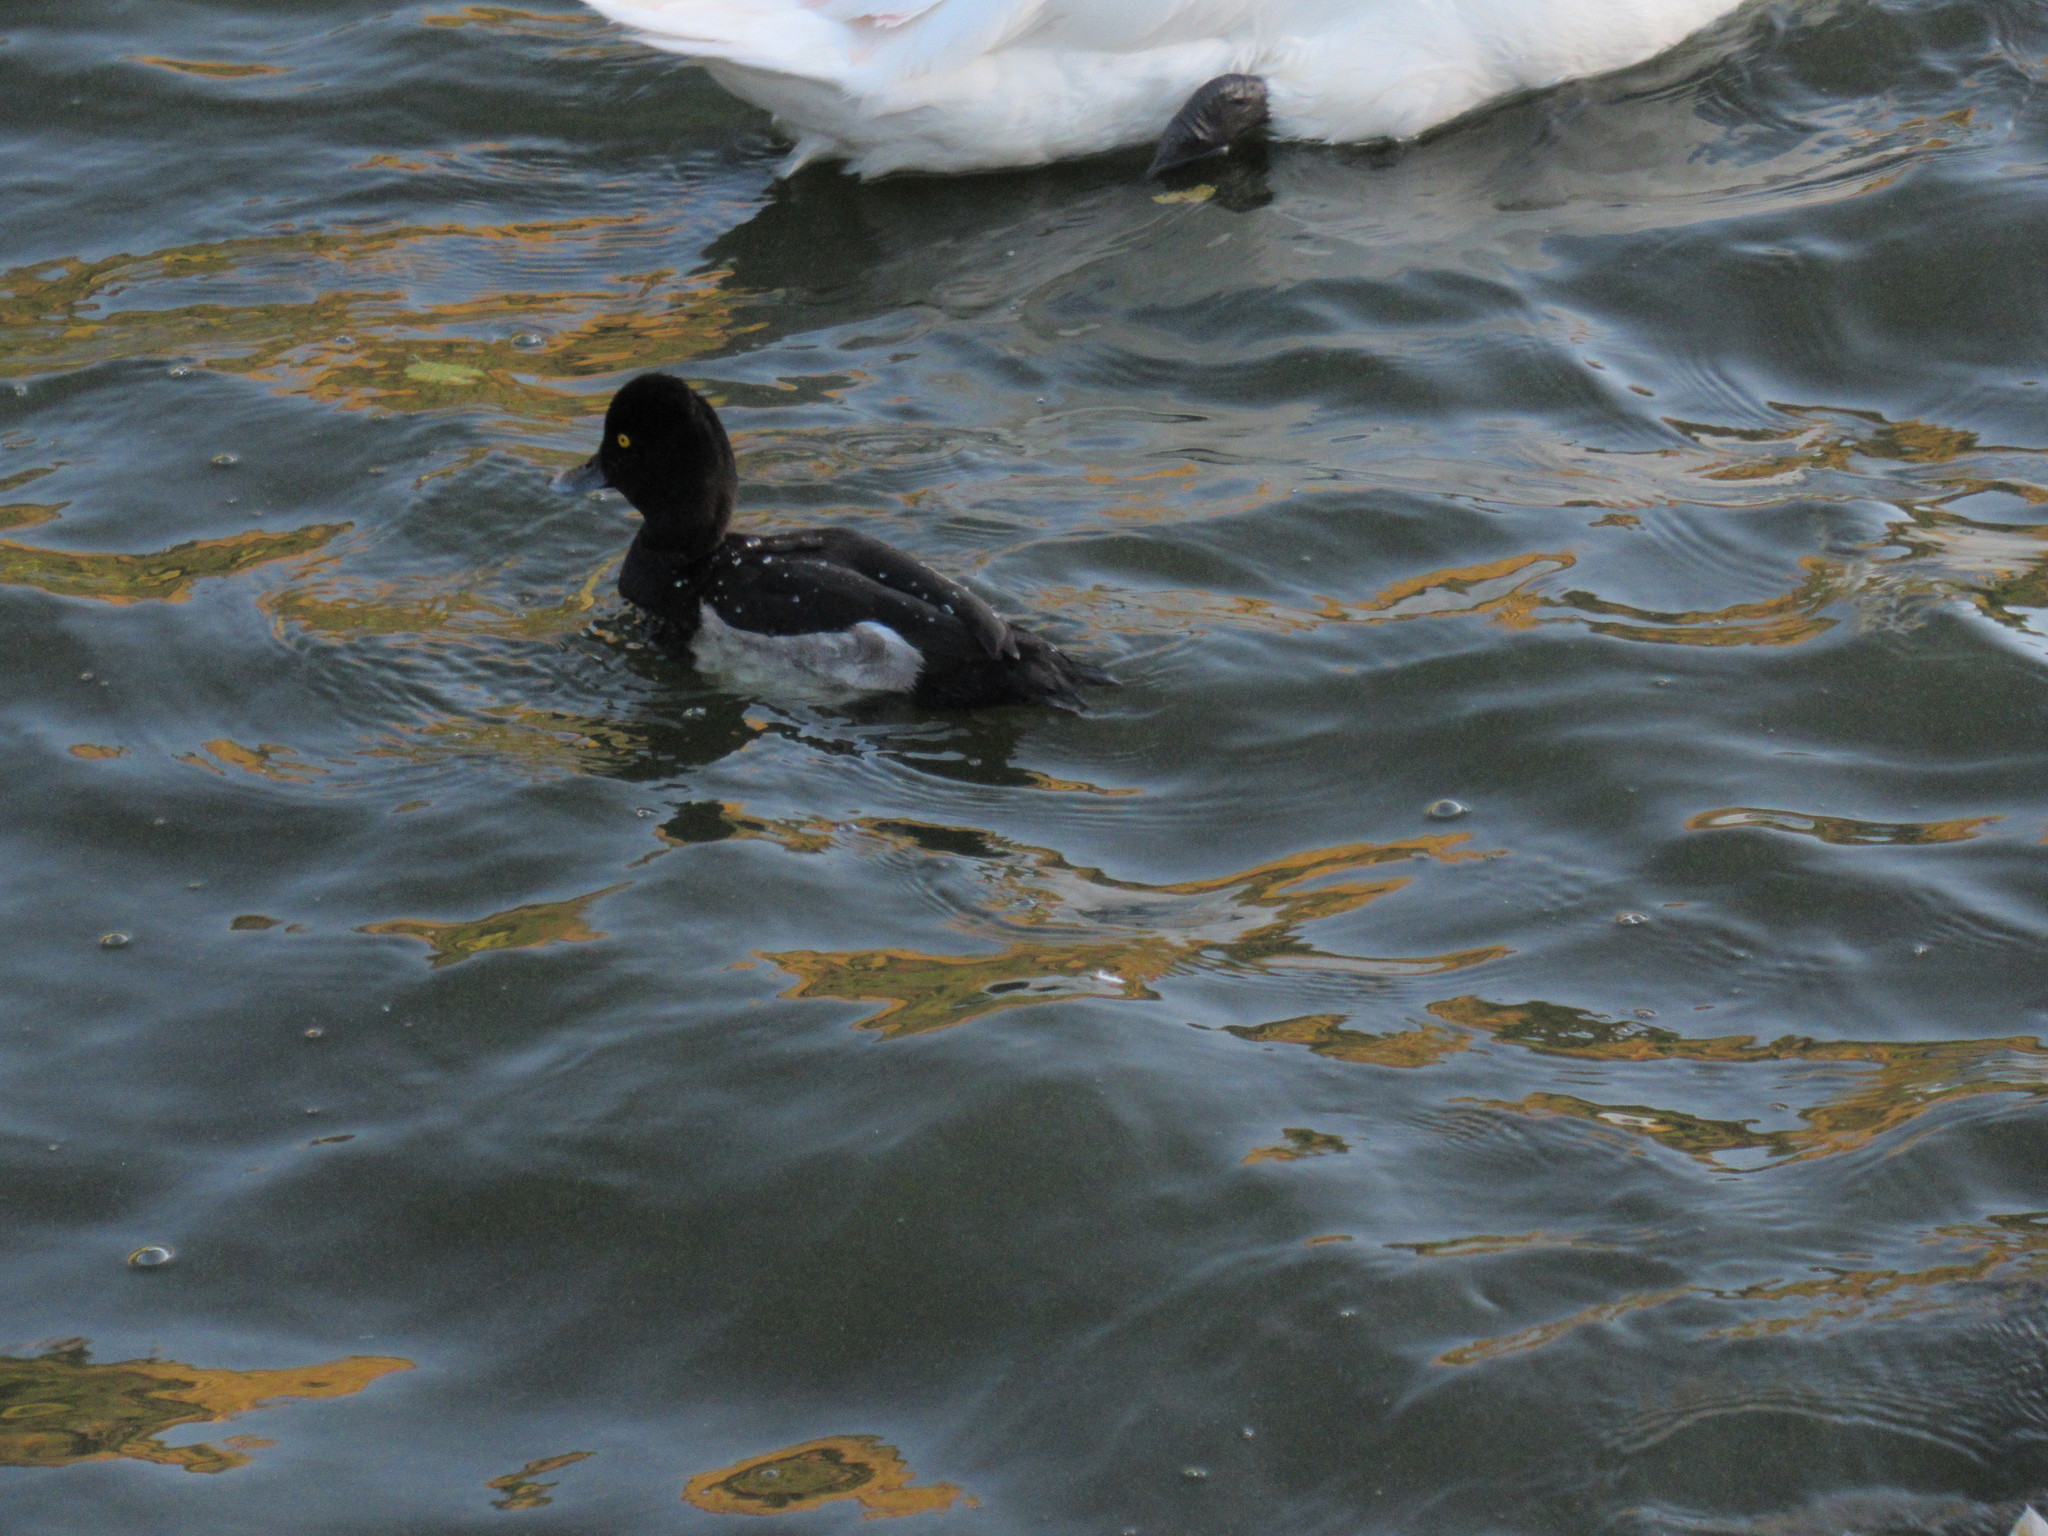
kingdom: Animalia
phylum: Chordata
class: Aves
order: Anseriformes
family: Anatidae
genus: Aythya
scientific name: Aythya fuligula
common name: Tufted duck
